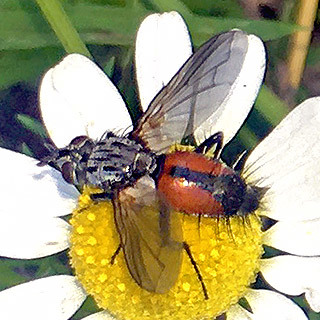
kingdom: Animalia
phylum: Arthropoda
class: Insecta
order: Diptera
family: Tachinidae
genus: Eriothrix
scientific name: Eriothrix rufomaculatus
